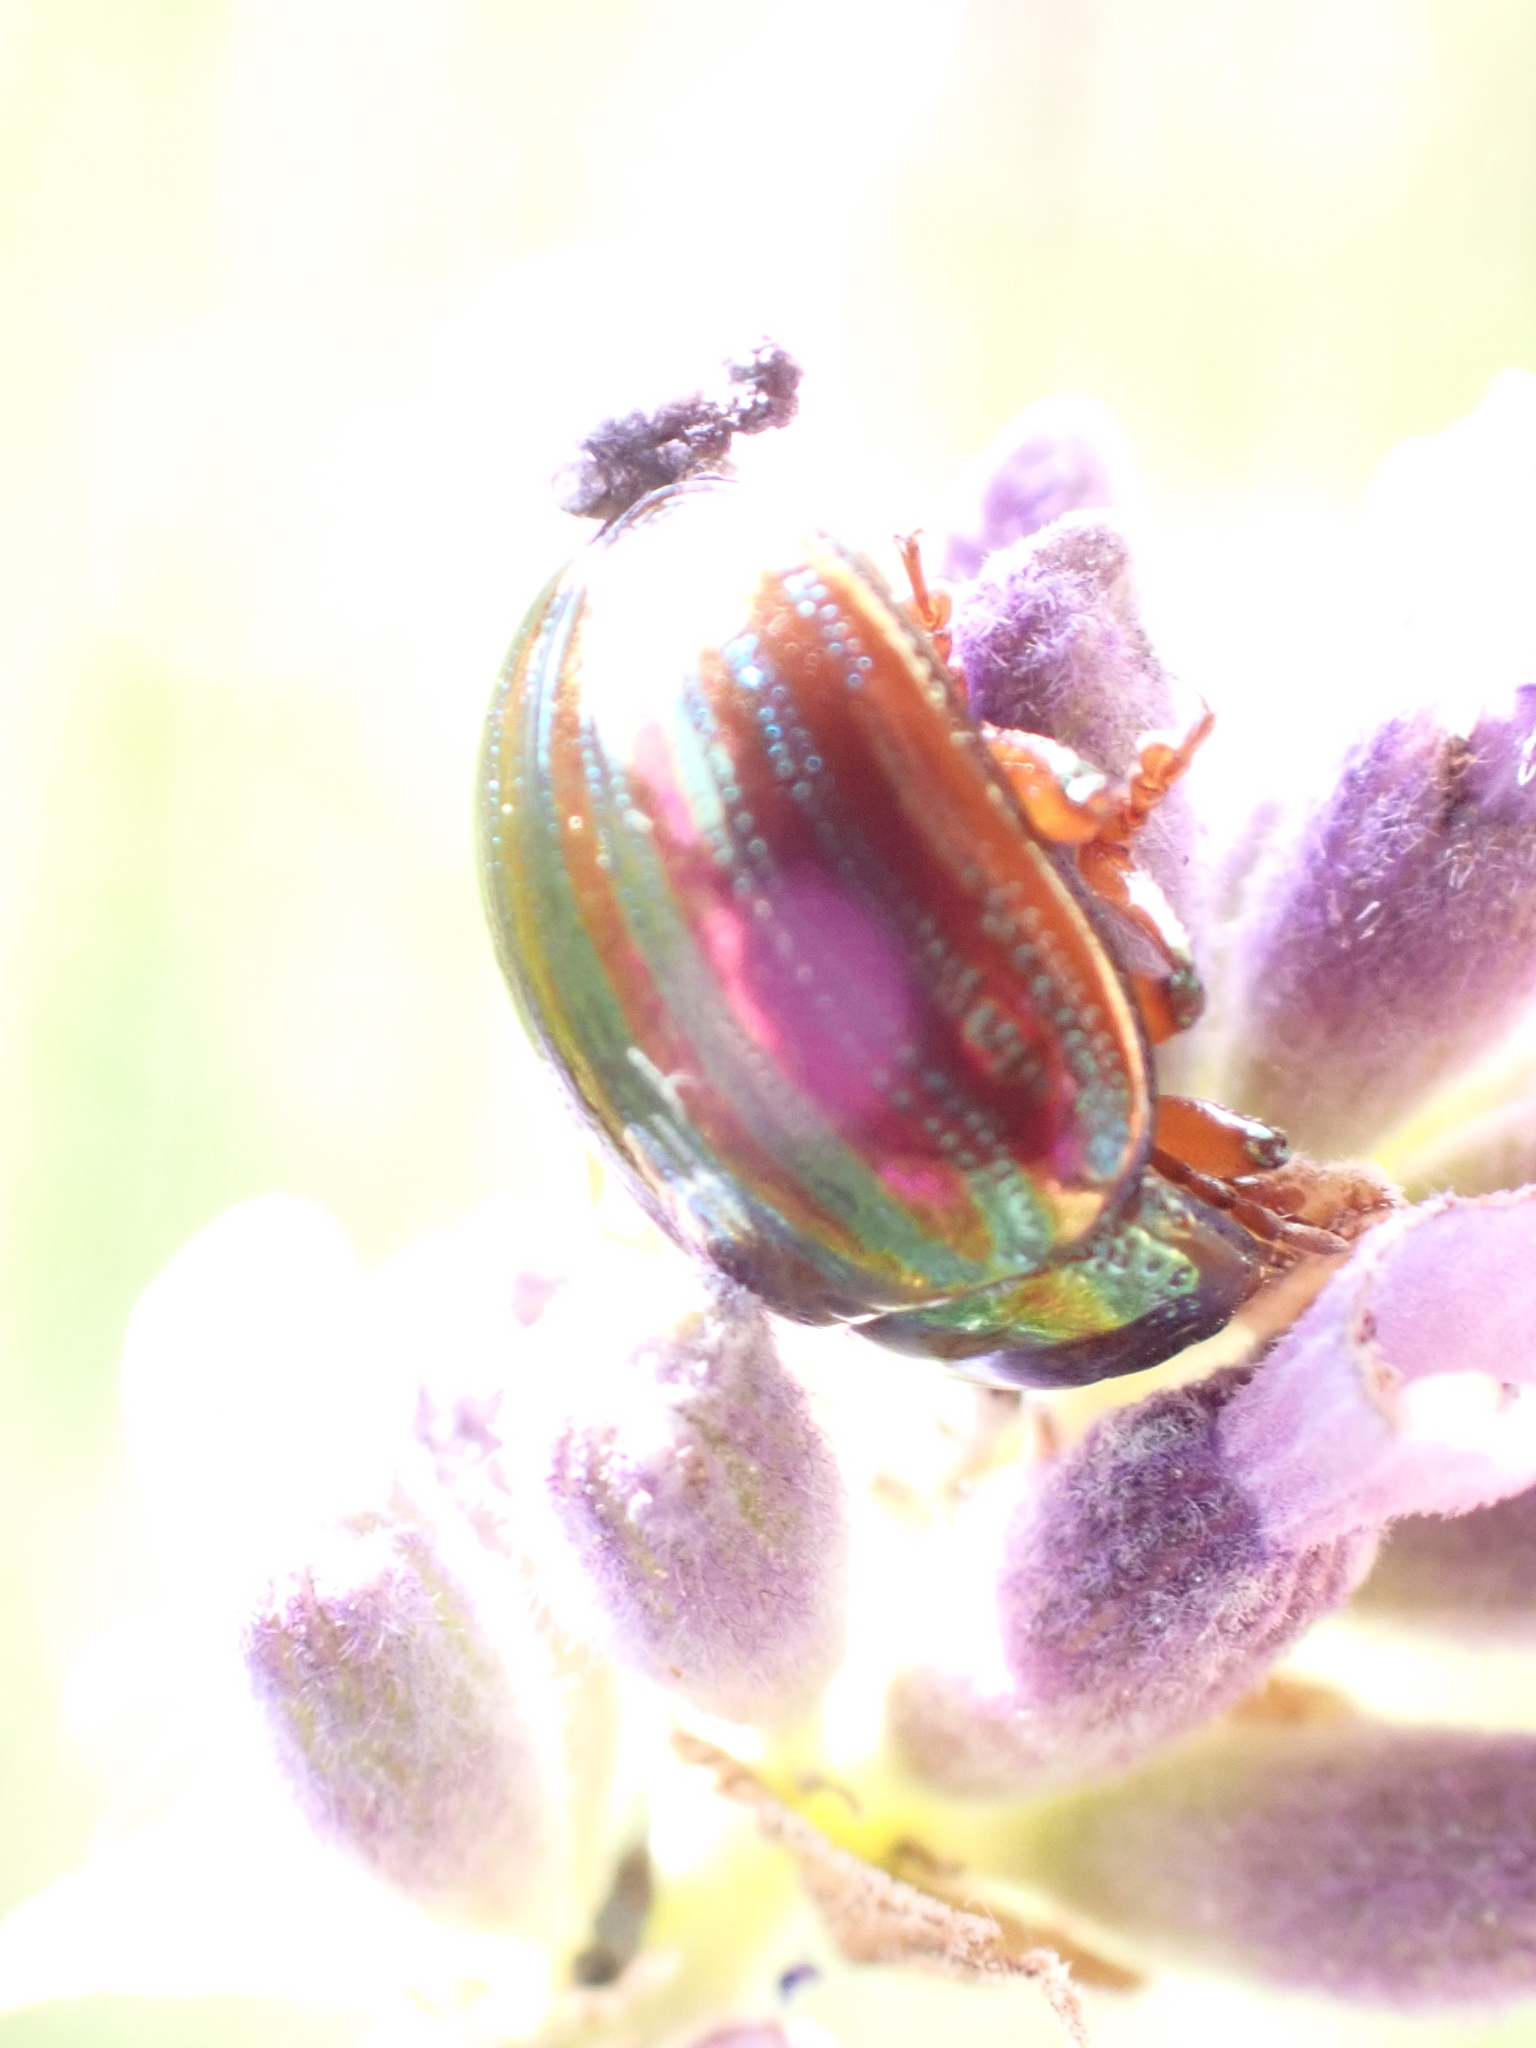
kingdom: Animalia
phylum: Arthropoda
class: Insecta
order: Coleoptera
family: Chrysomelidae
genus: Chrysolina
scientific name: Chrysolina americana
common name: Rosemary beetle
